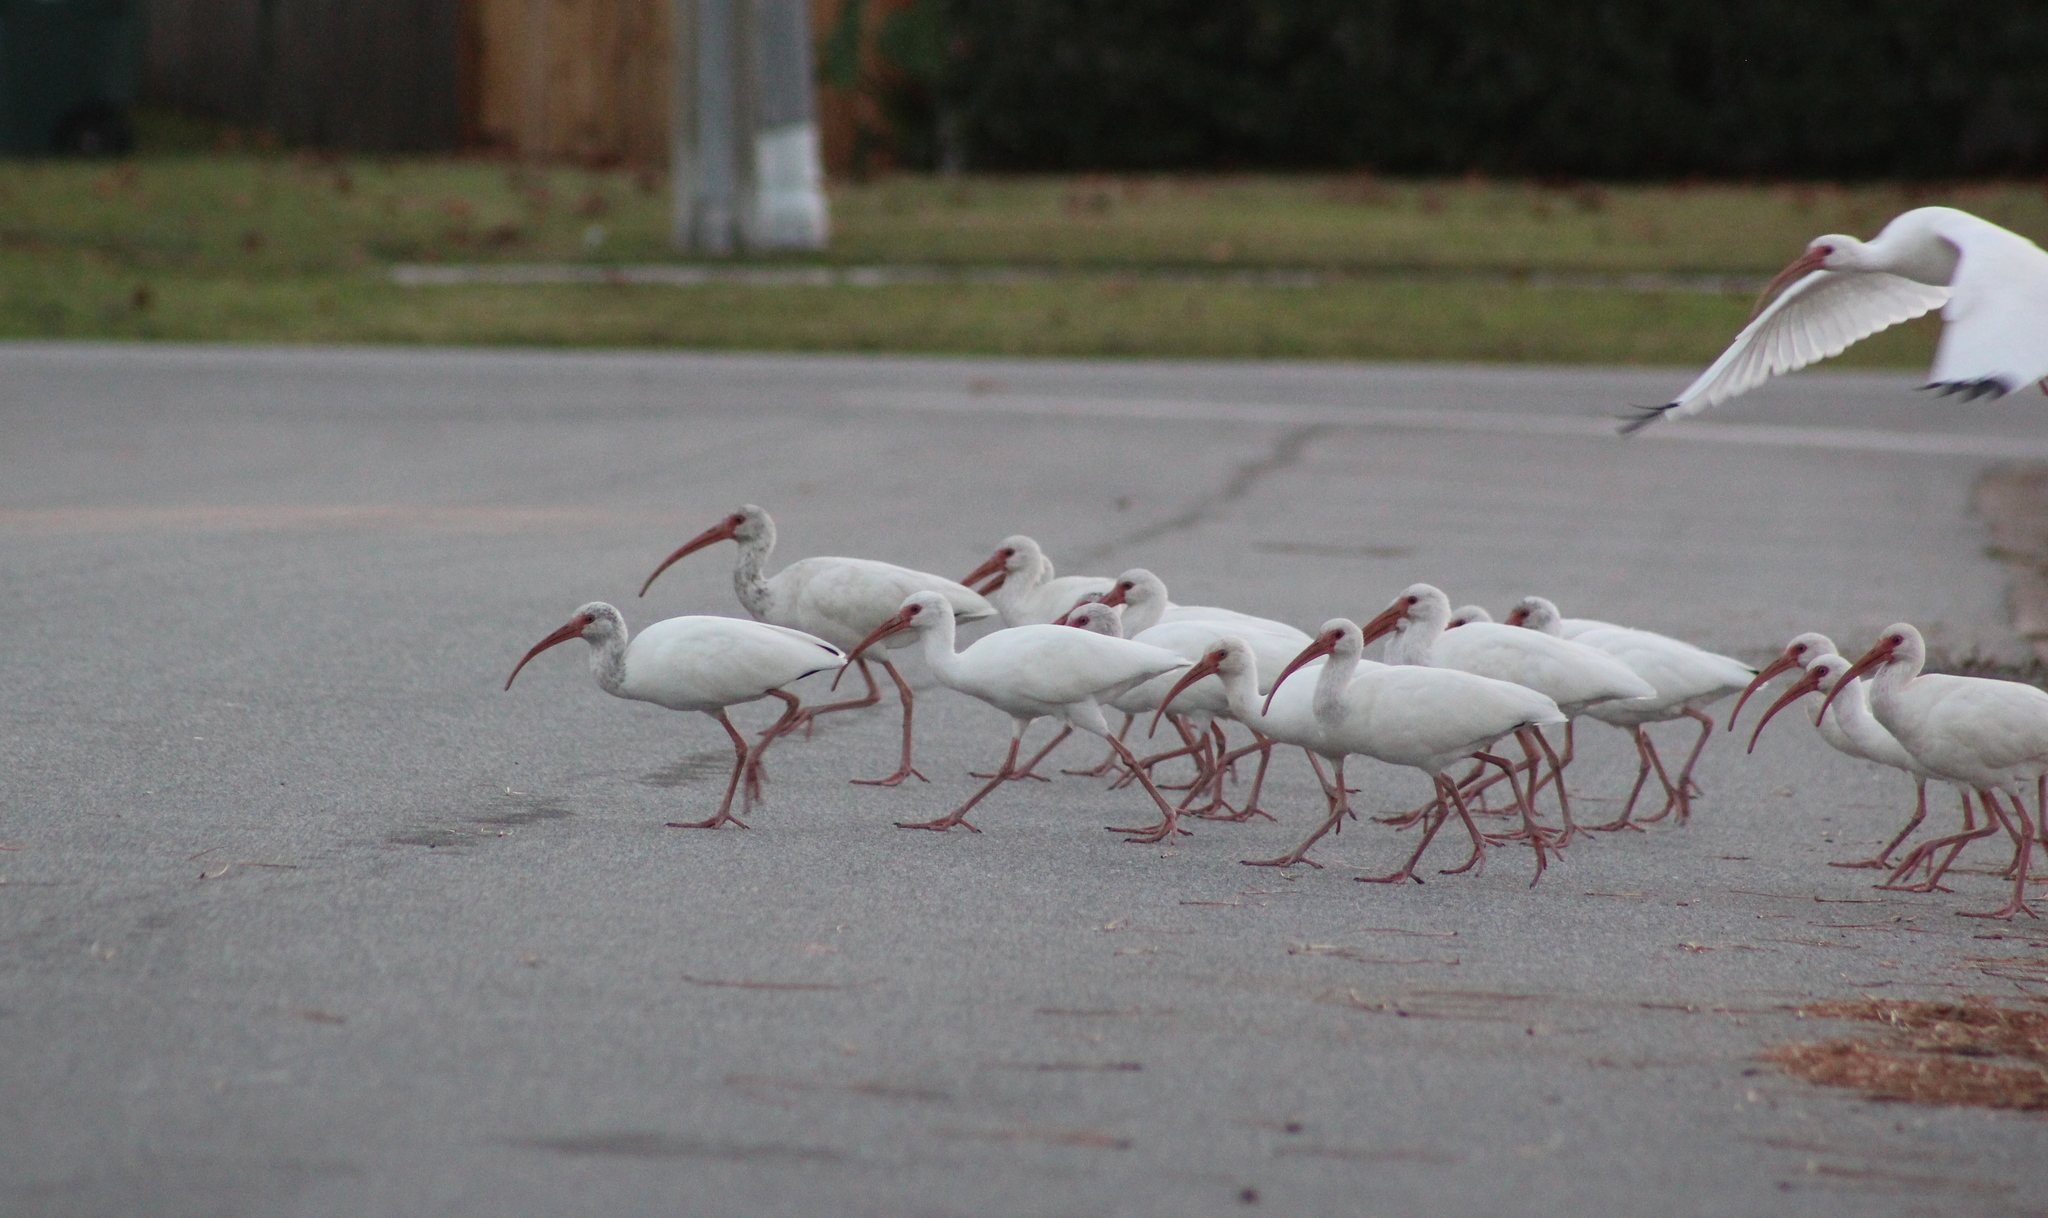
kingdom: Animalia
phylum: Chordata
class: Aves
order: Pelecaniformes
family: Threskiornithidae
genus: Eudocimus
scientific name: Eudocimus albus
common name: White ibis
